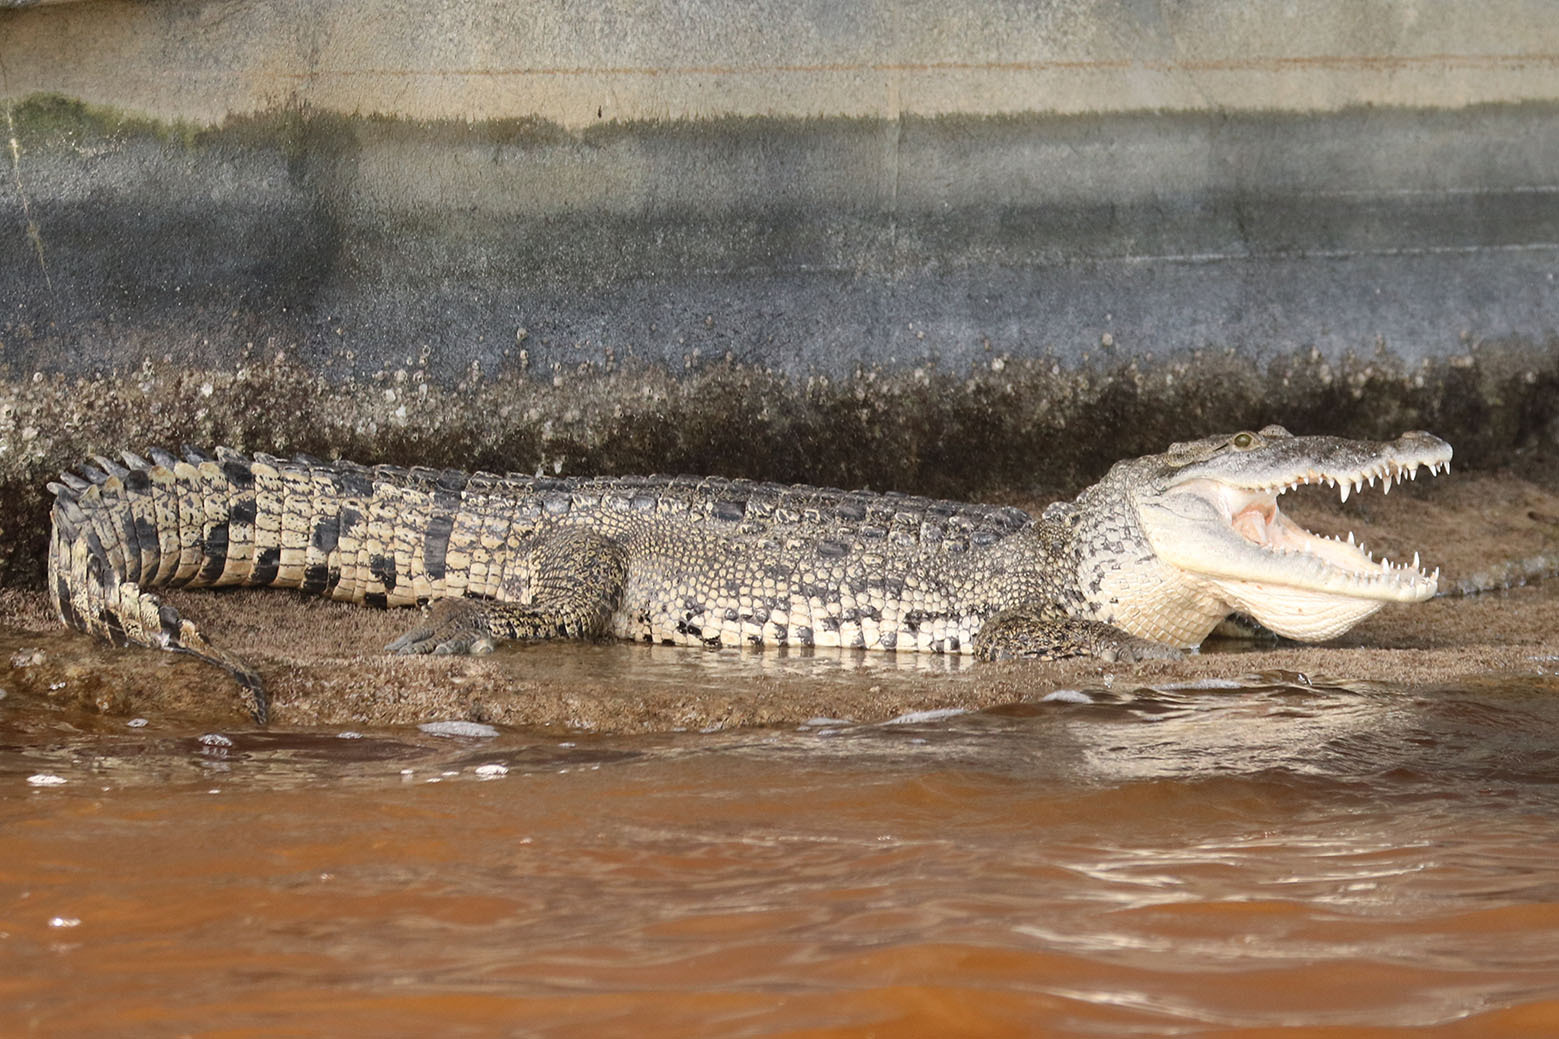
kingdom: Animalia
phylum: Chordata
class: Crocodylia
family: Crocodylidae
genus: Crocodylus
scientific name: Crocodylus moreletii
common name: Morelet's crocodile
